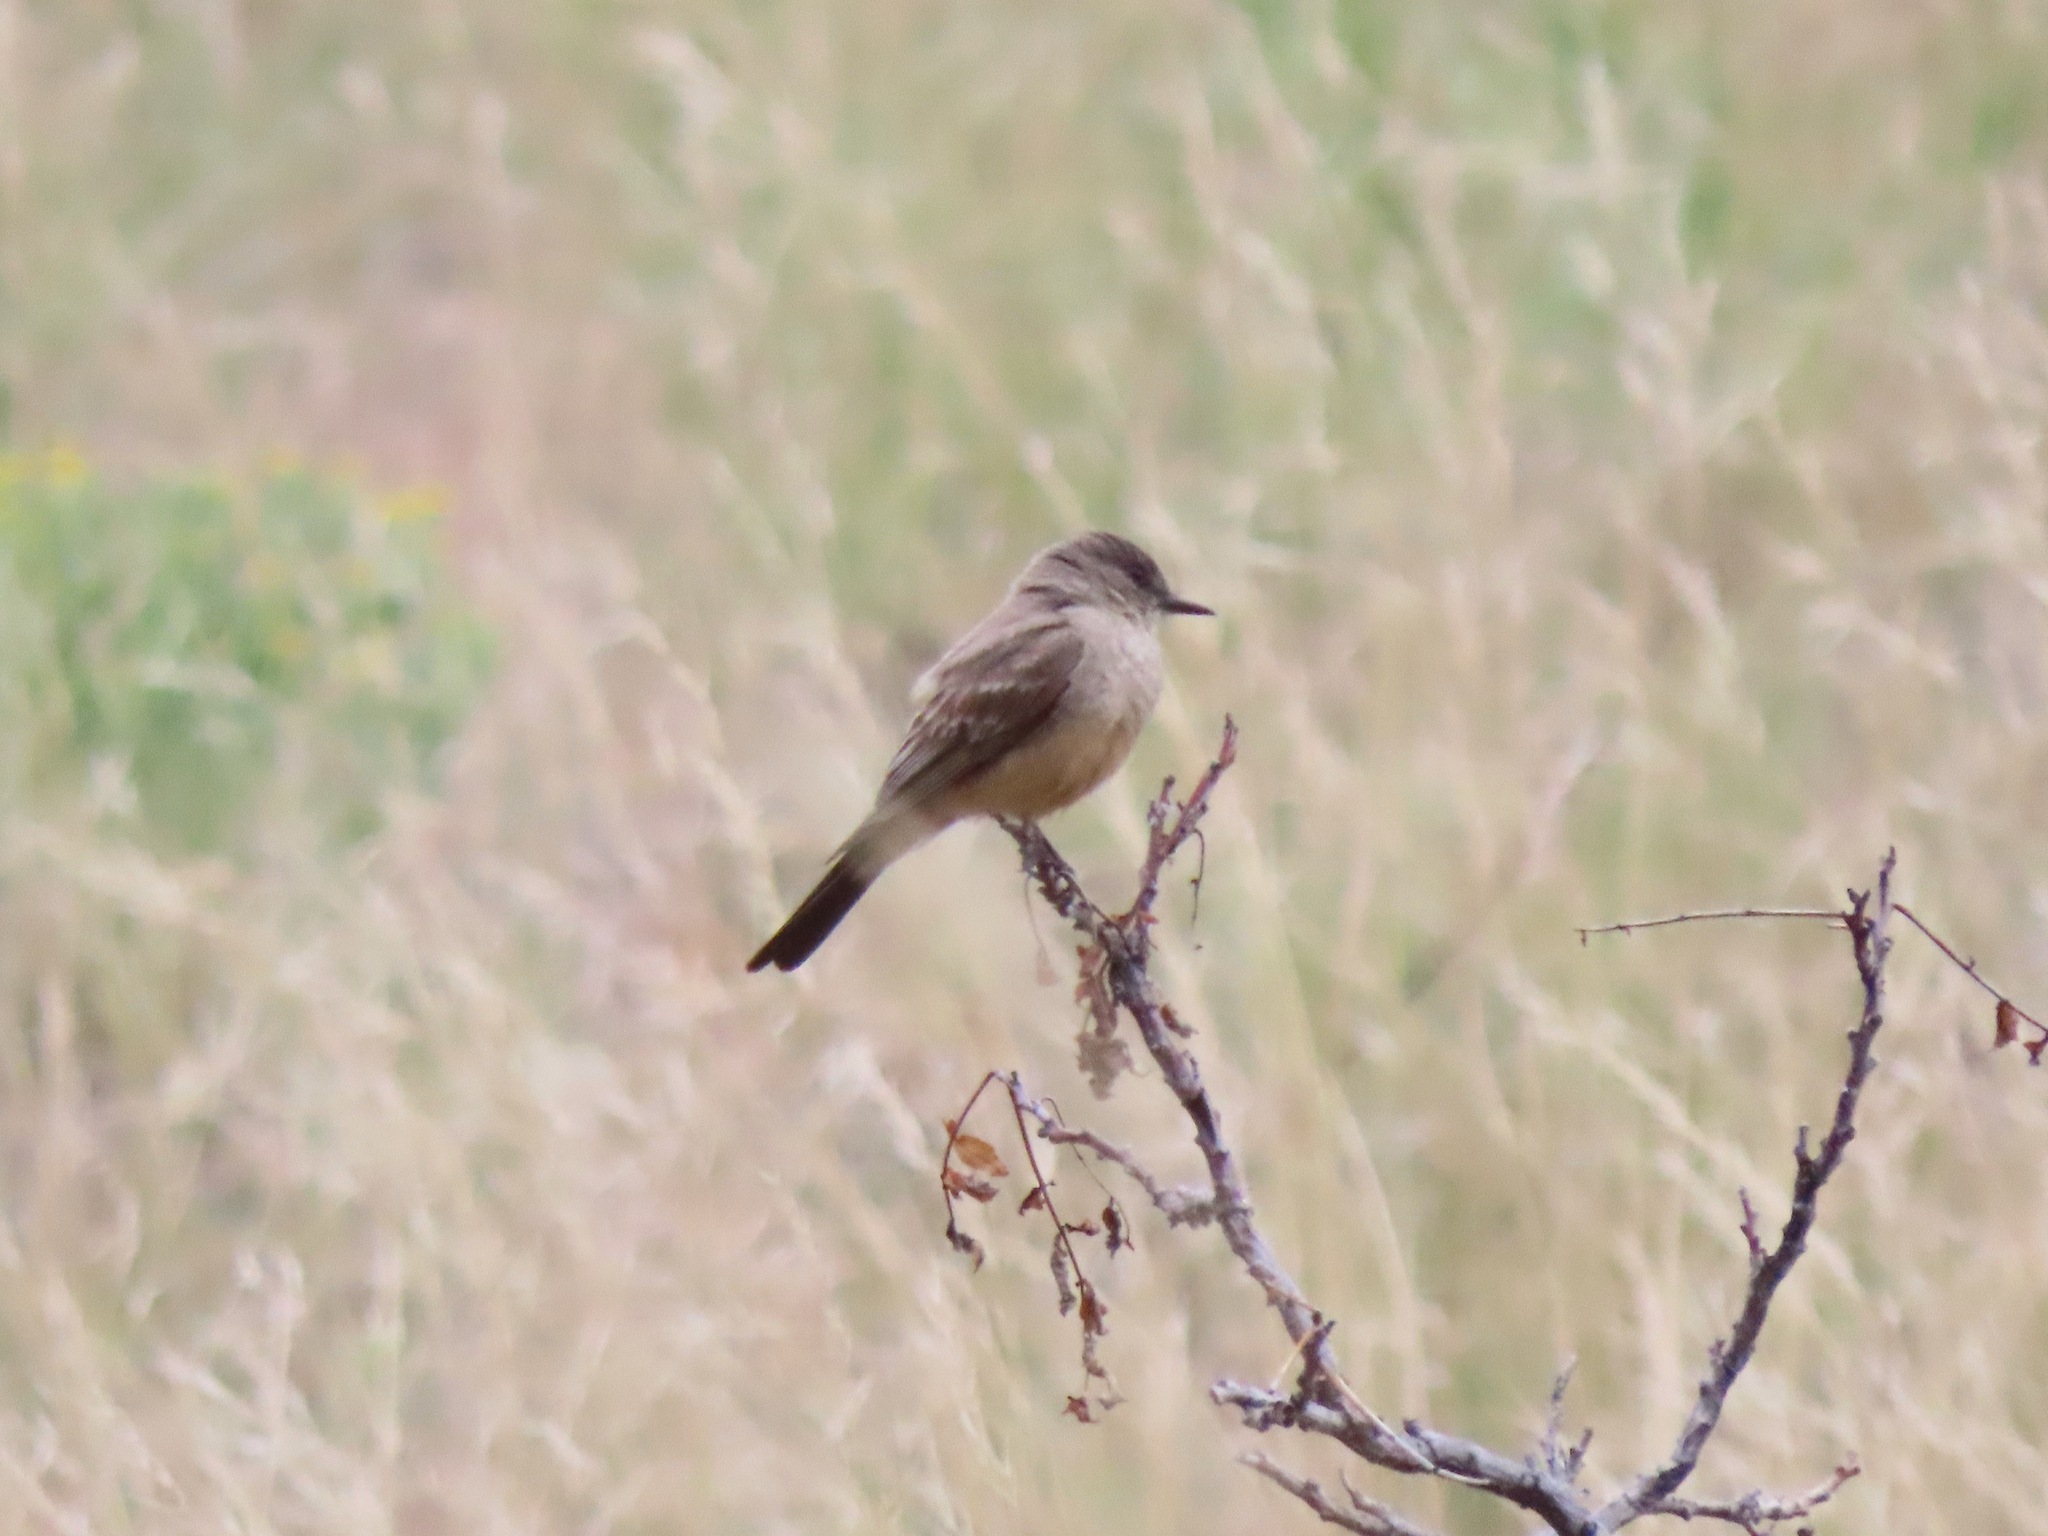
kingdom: Animalia
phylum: Chordata
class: Aves
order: Passeriformes
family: Tyrannidae
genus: Sayornis
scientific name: Sayornis saya
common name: Say's phoebe
